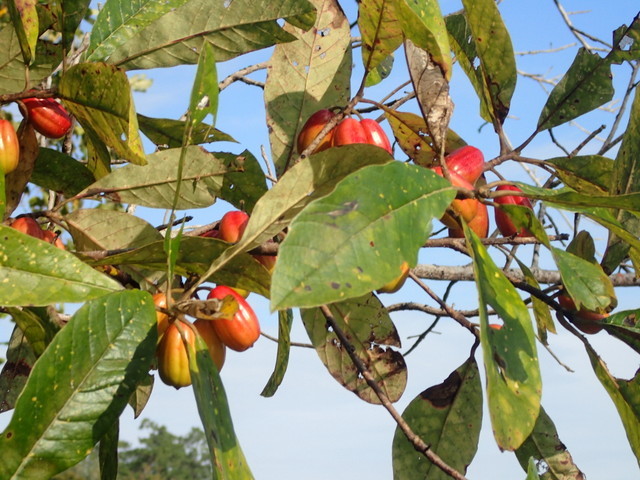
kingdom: Plantae
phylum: Tracheophyta
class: Magnoliopsida
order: Cornales
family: Nyssaceae
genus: Nyssa
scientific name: Nyssa ogeche
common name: Ogeechee tupelo
